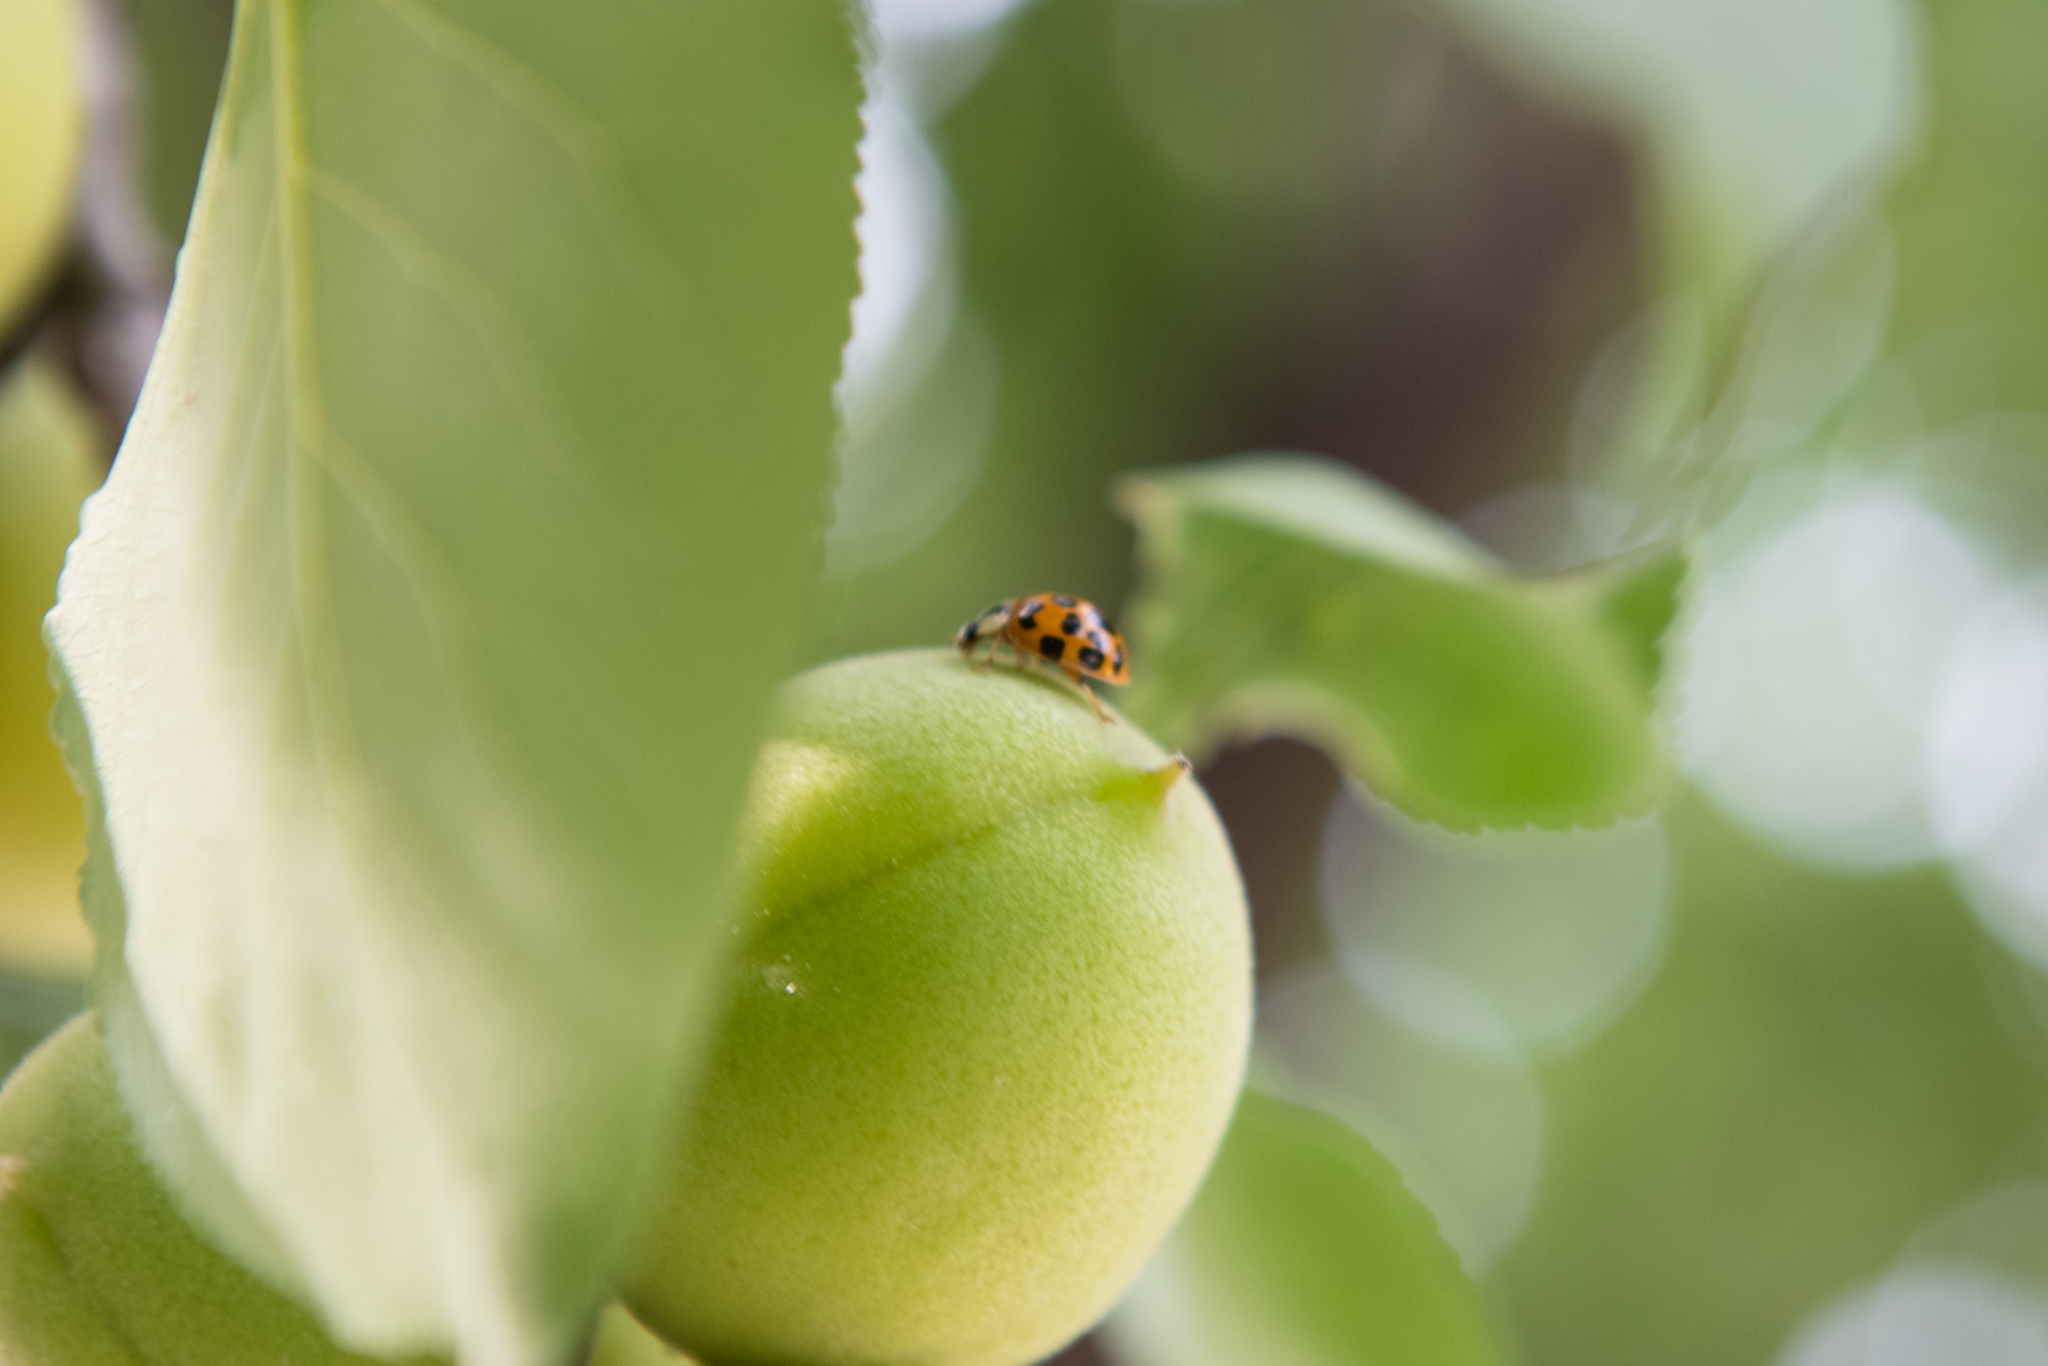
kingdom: Animalia
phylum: Arthropoda
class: Insecta
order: Coleoptera
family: Coccinellidae
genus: Harmonia
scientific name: Harmonia axyridis
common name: Harlequin ladybird
